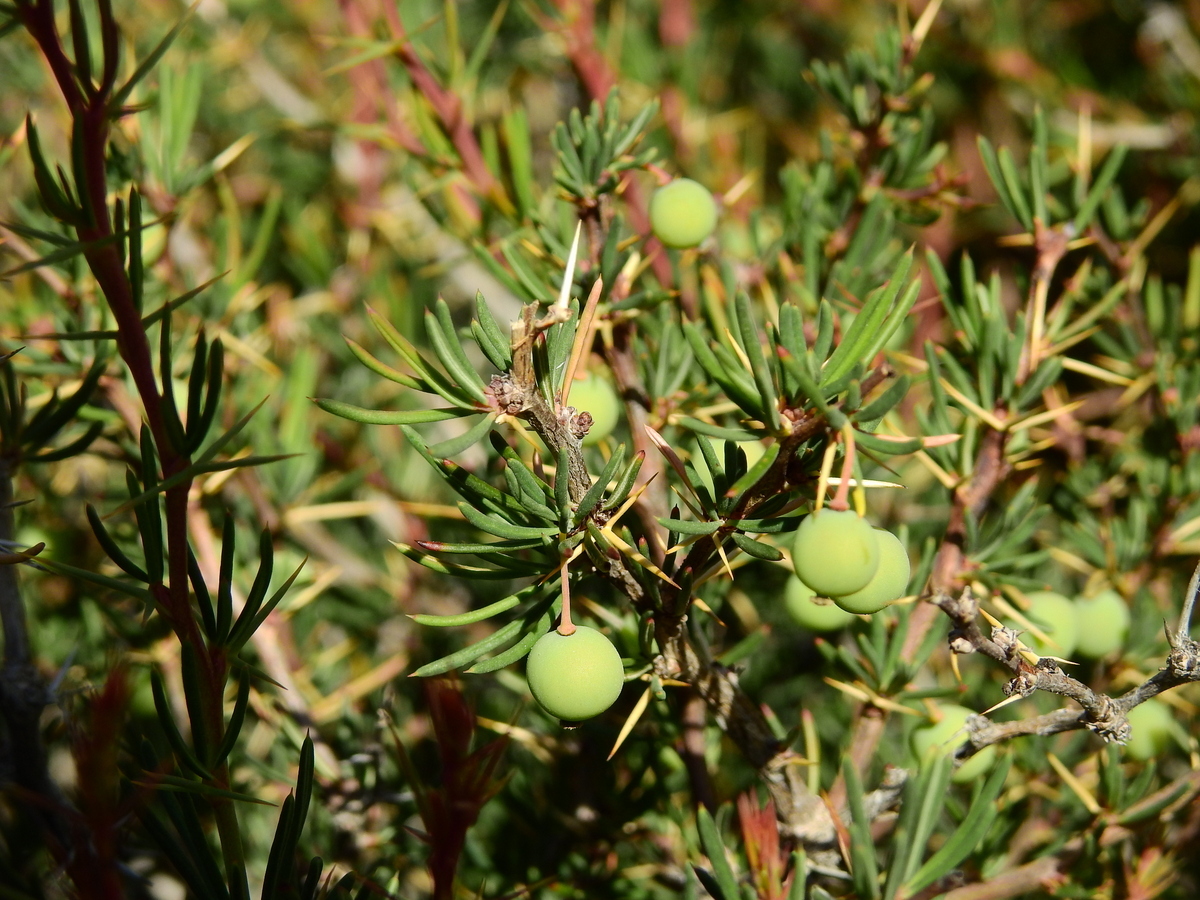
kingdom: Plantae
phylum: Tracheophyta
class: Magnoliopsida
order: Ranunculales
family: Berberidaceae
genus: Berberis
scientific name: Berberis empetrifolia
